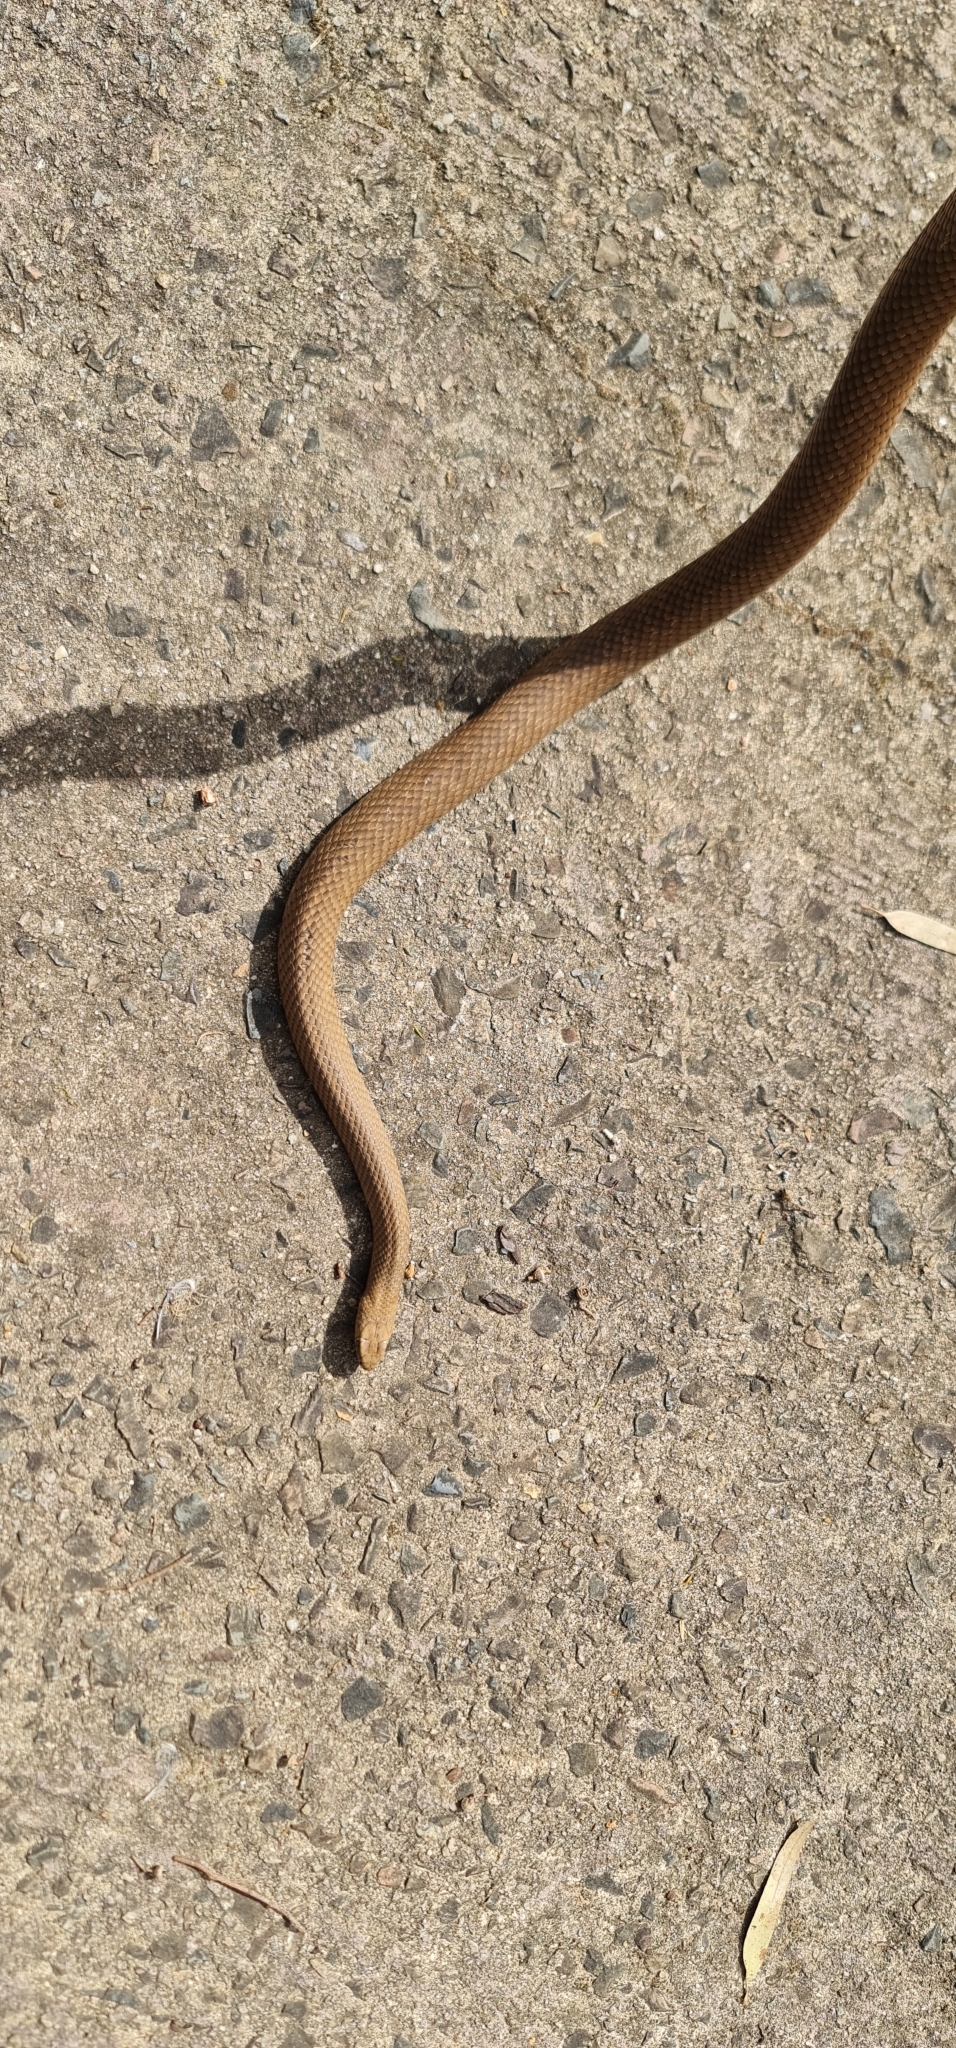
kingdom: Animalia
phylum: Chordata
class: Squamata
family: Elapidae
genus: Pseudonaja
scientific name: Pseudonaja textilis
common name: Eastern brown snake
